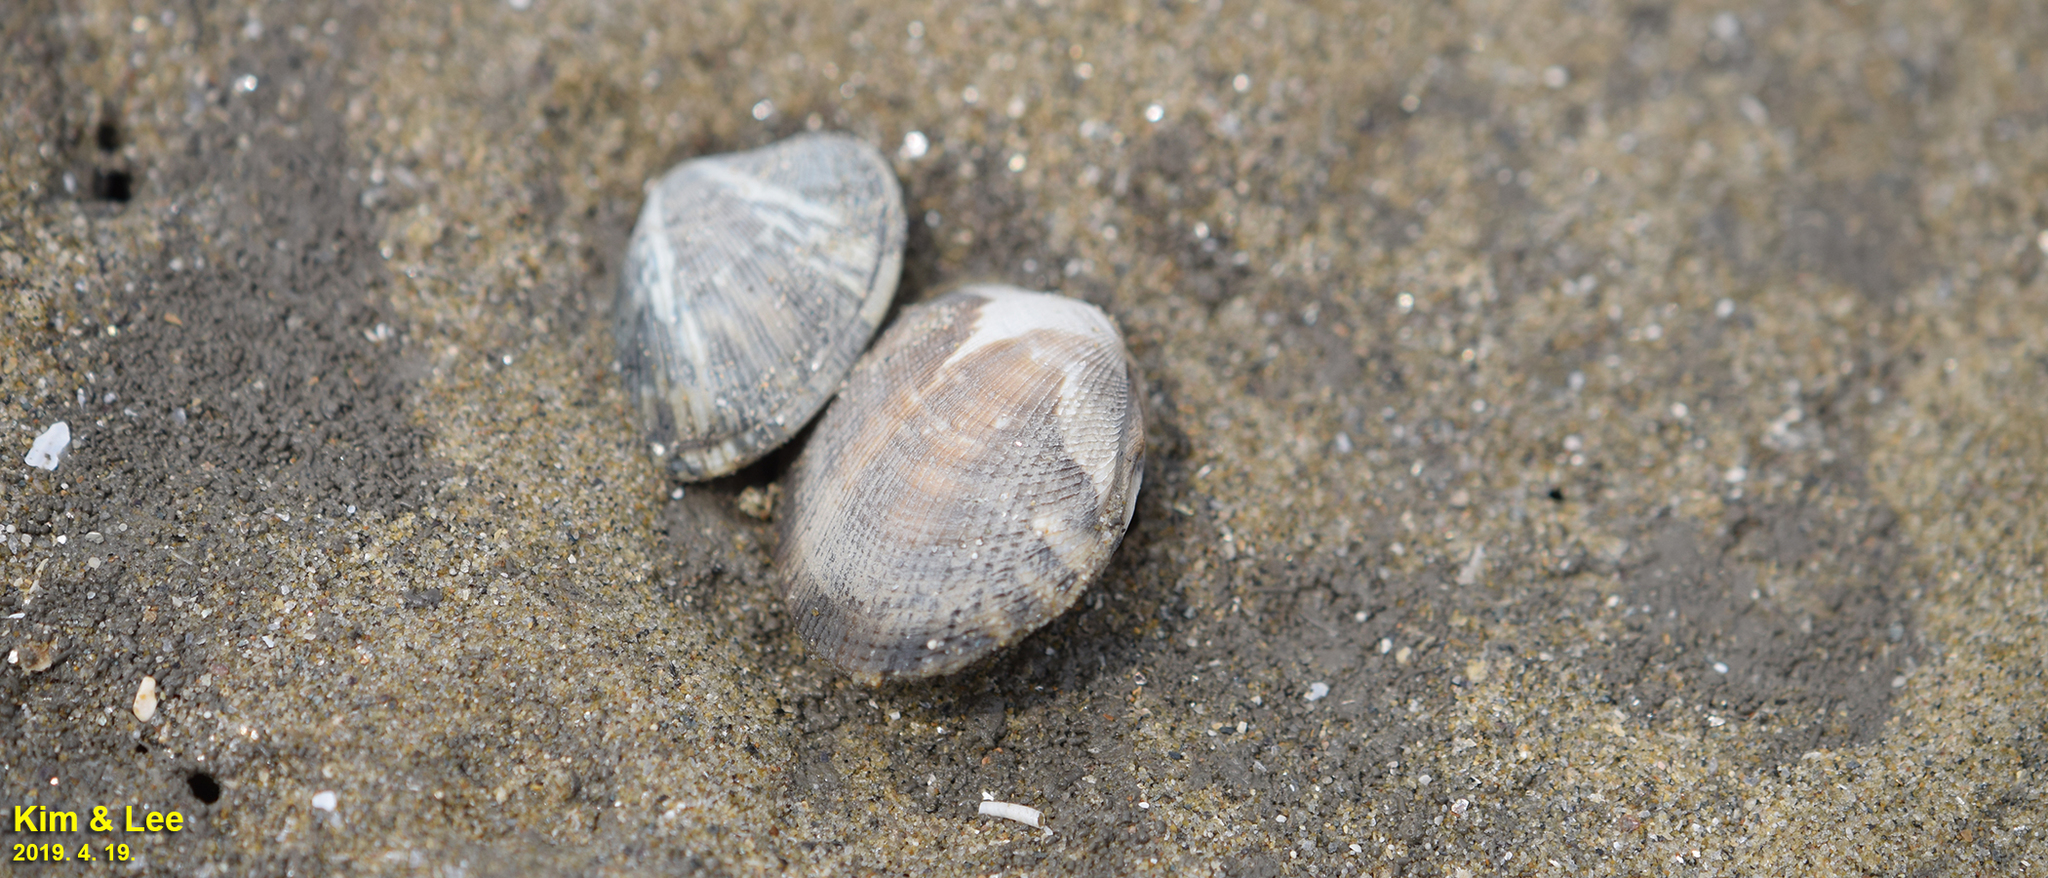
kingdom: Animalia
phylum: Mollusca
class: Bivalvia
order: Venerida
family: Veneridae
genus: Ruditapes
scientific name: Ruditapes philippinarum
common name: Manila clam
